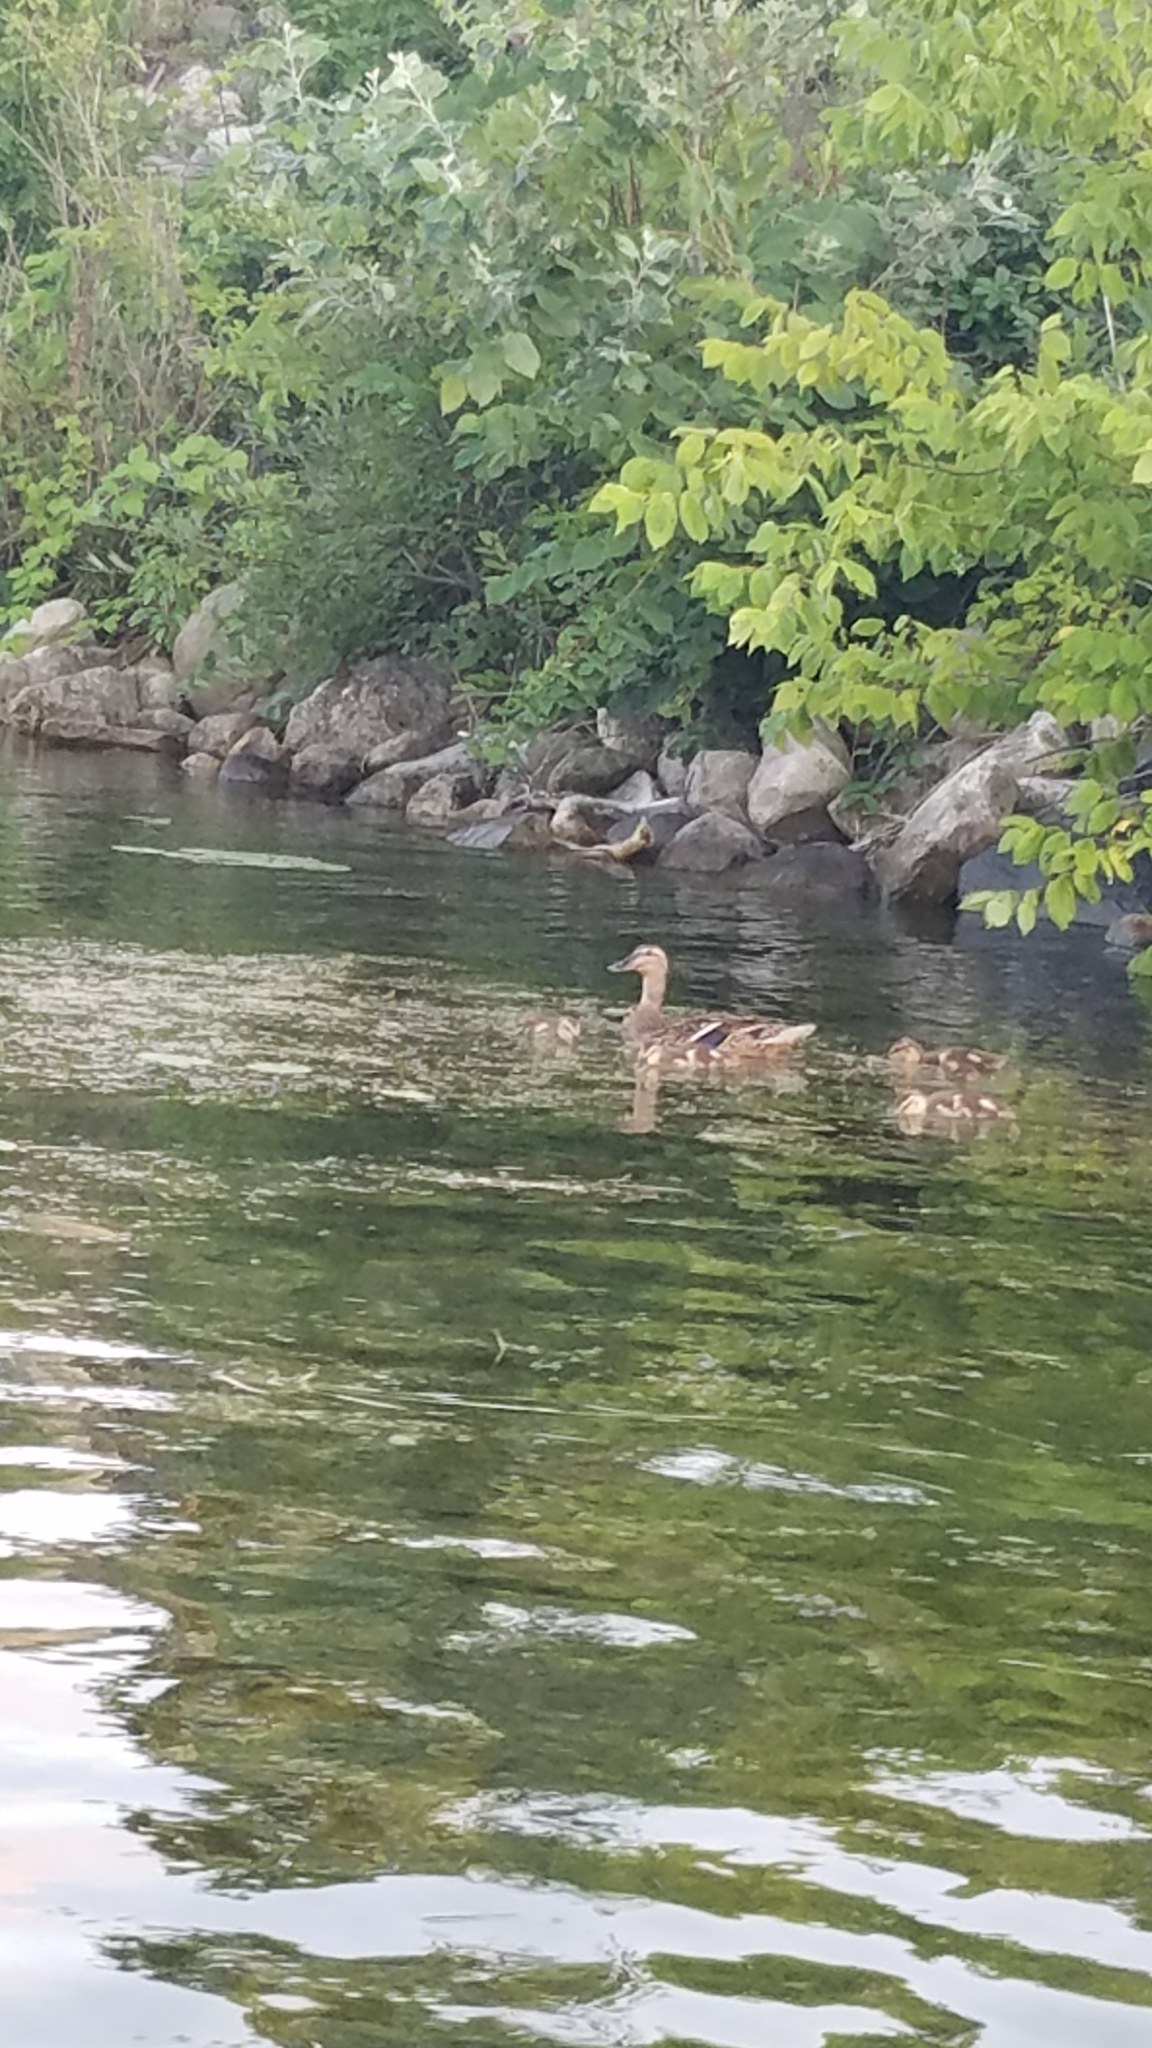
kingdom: Animalia
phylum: Chordata
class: Aves
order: Anseriformes
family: Anatidae
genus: Anas
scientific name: Anas platyrhynchos
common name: Mallard
